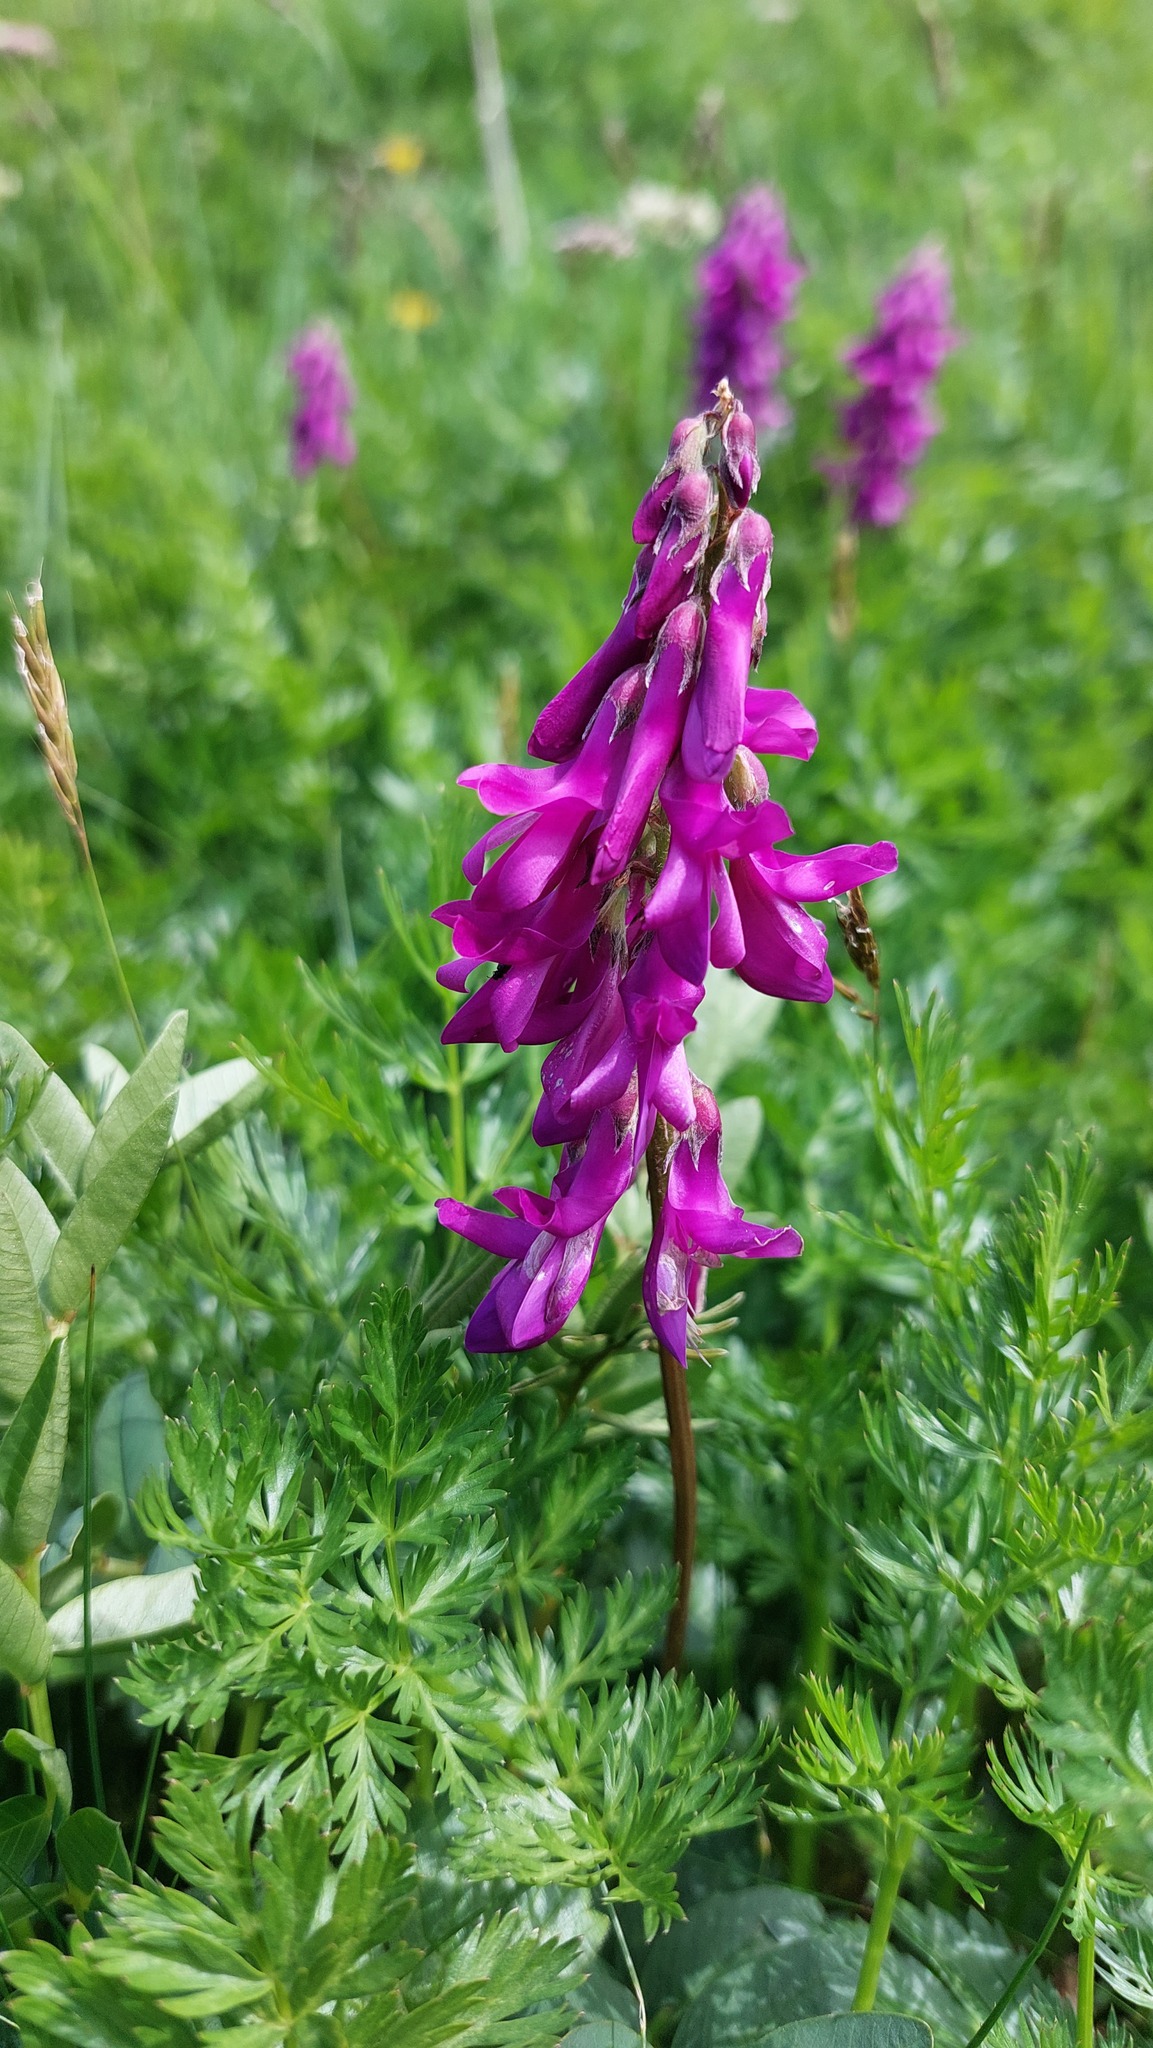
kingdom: Plantae
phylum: Tracheophyta
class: Magnoliopsida
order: Fabales
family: Fabaceae
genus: Hedysarum
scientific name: Hedysarum hedysaroides
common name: Alpine french-honeysuckle
